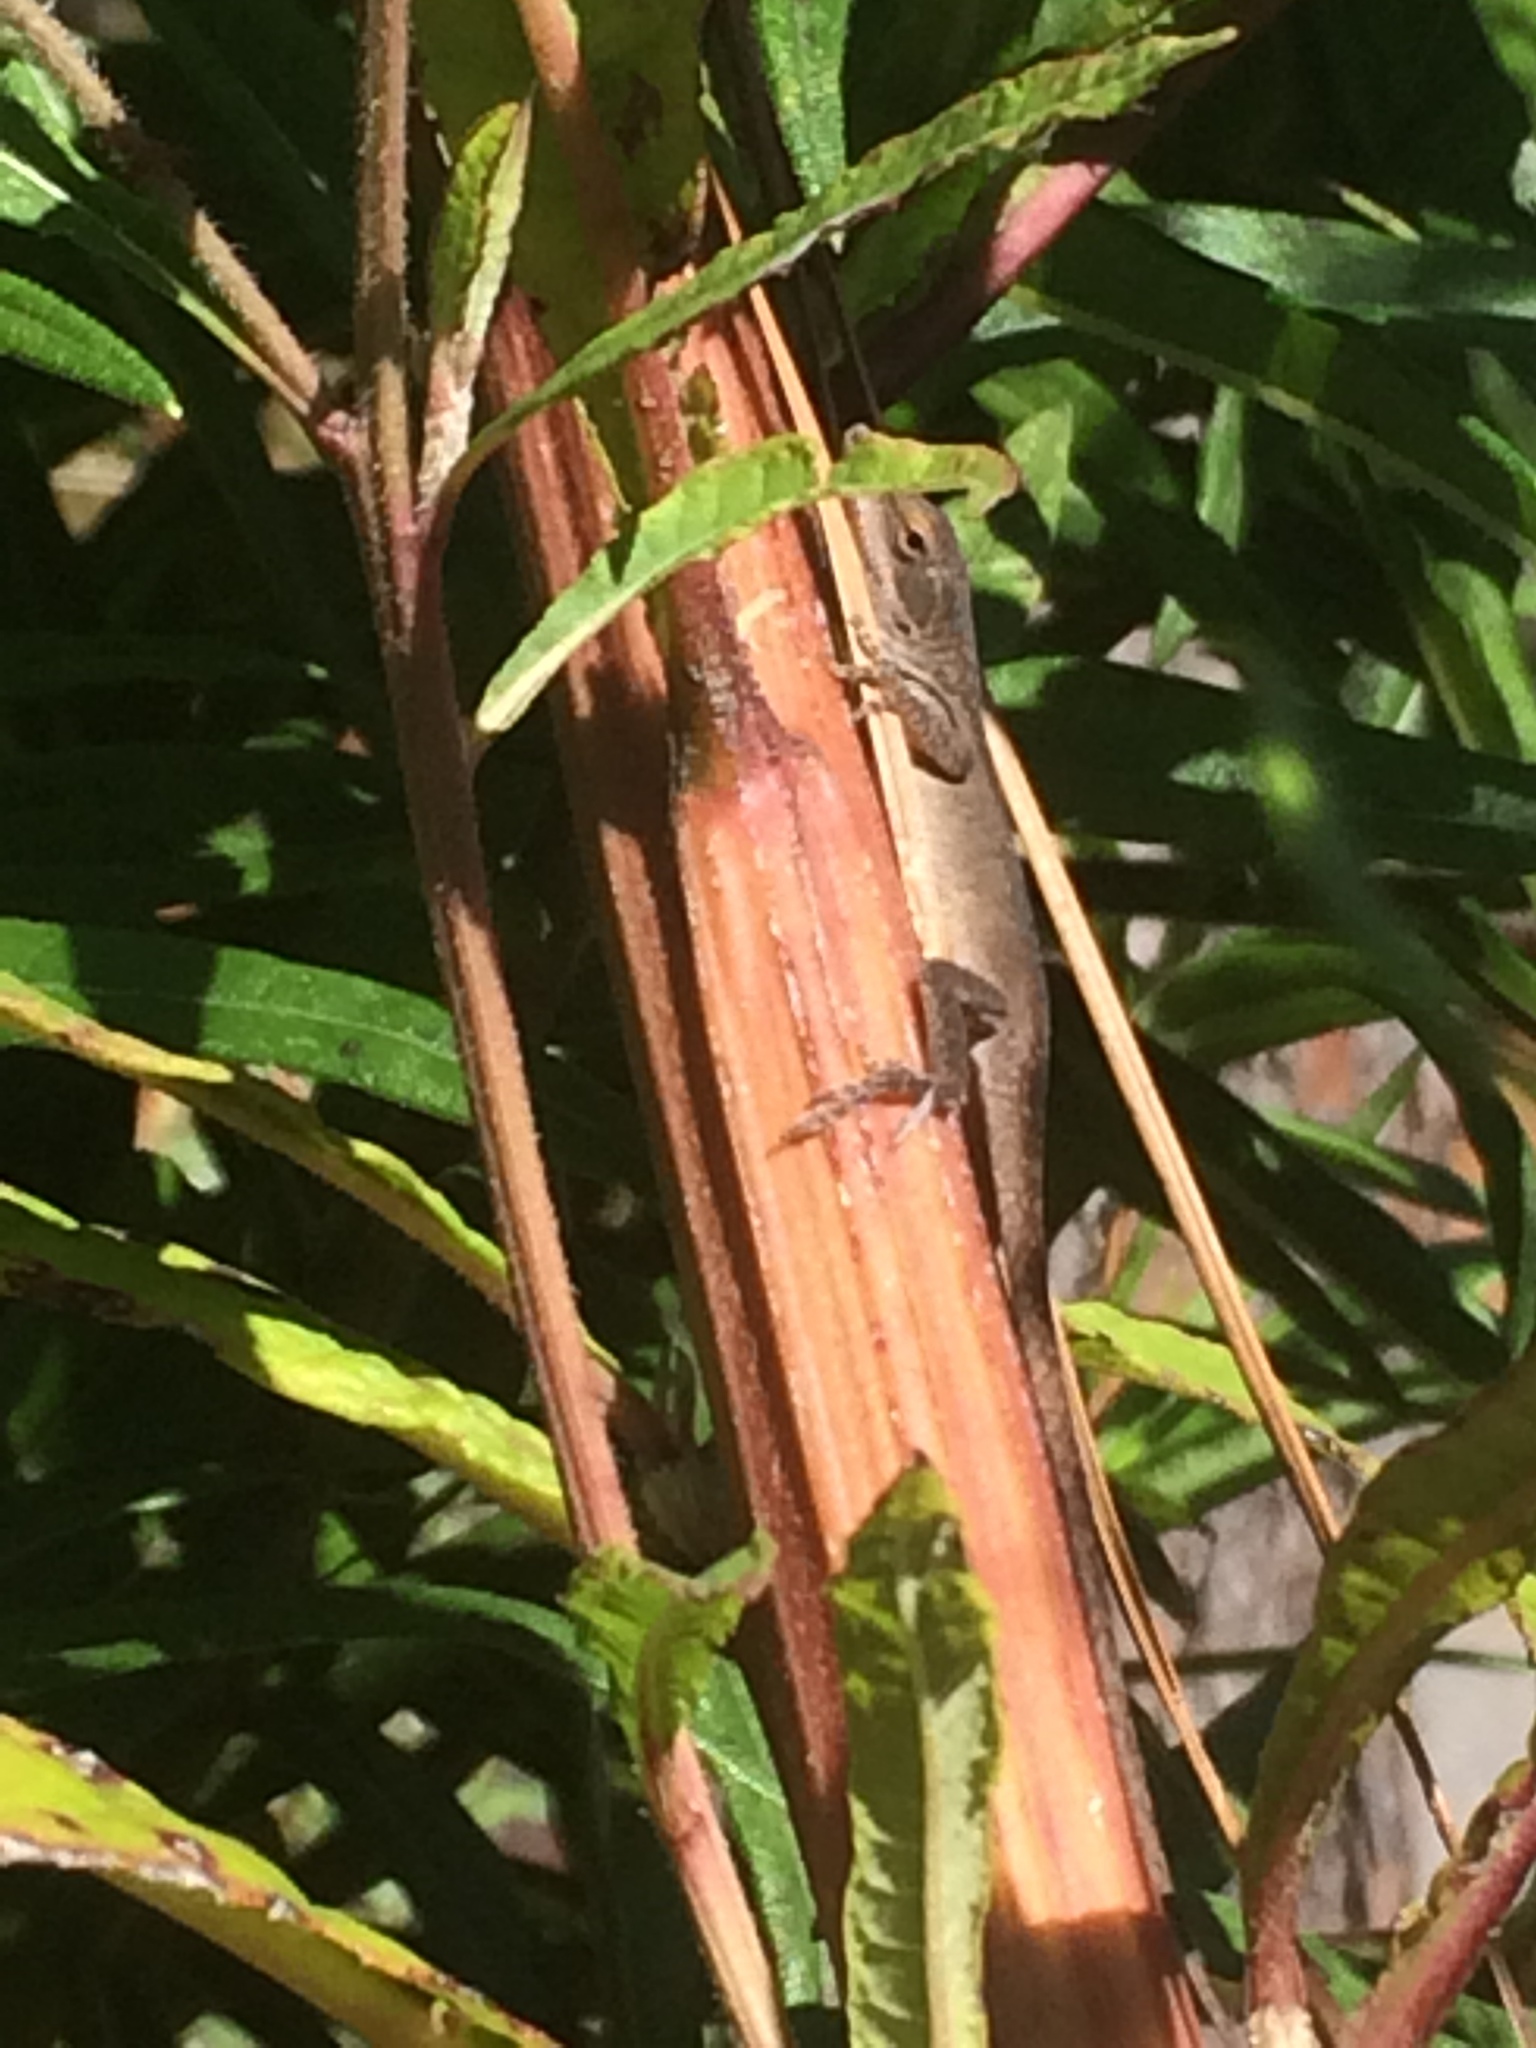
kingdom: Animalia
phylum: Chordata
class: Squamata
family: Dactyloidae
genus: Anolis
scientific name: Anolis carolinensis
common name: Green anole
